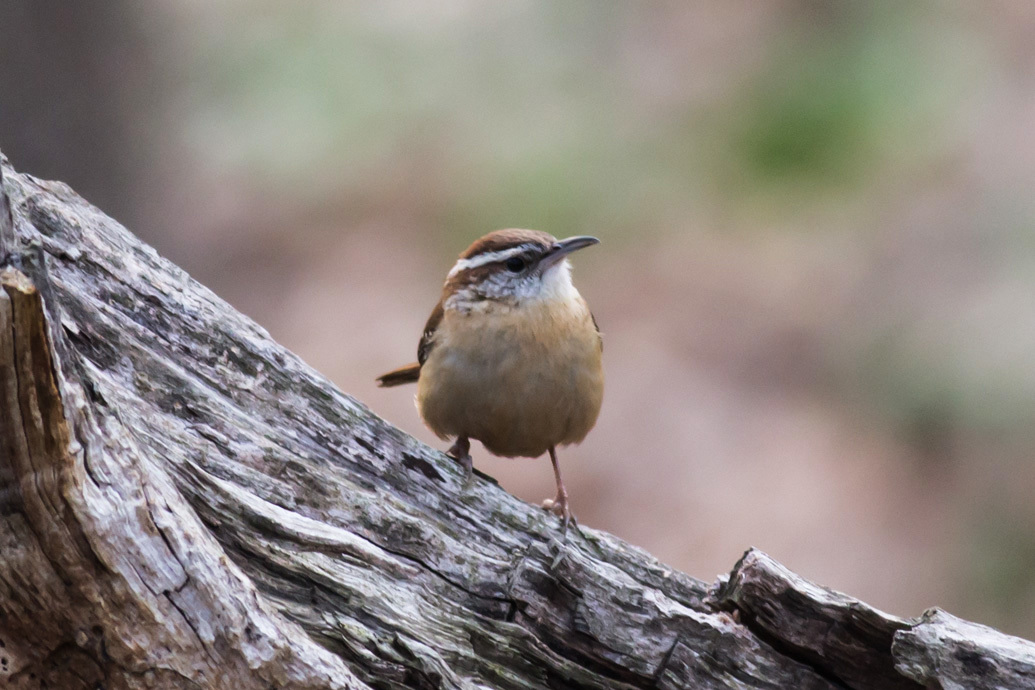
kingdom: Animalia
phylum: Chordata
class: Aves
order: Passeriformes
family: Troglodytidae
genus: Thryothorus
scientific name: Thryothorus ludovicianus
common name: Carolina wren
